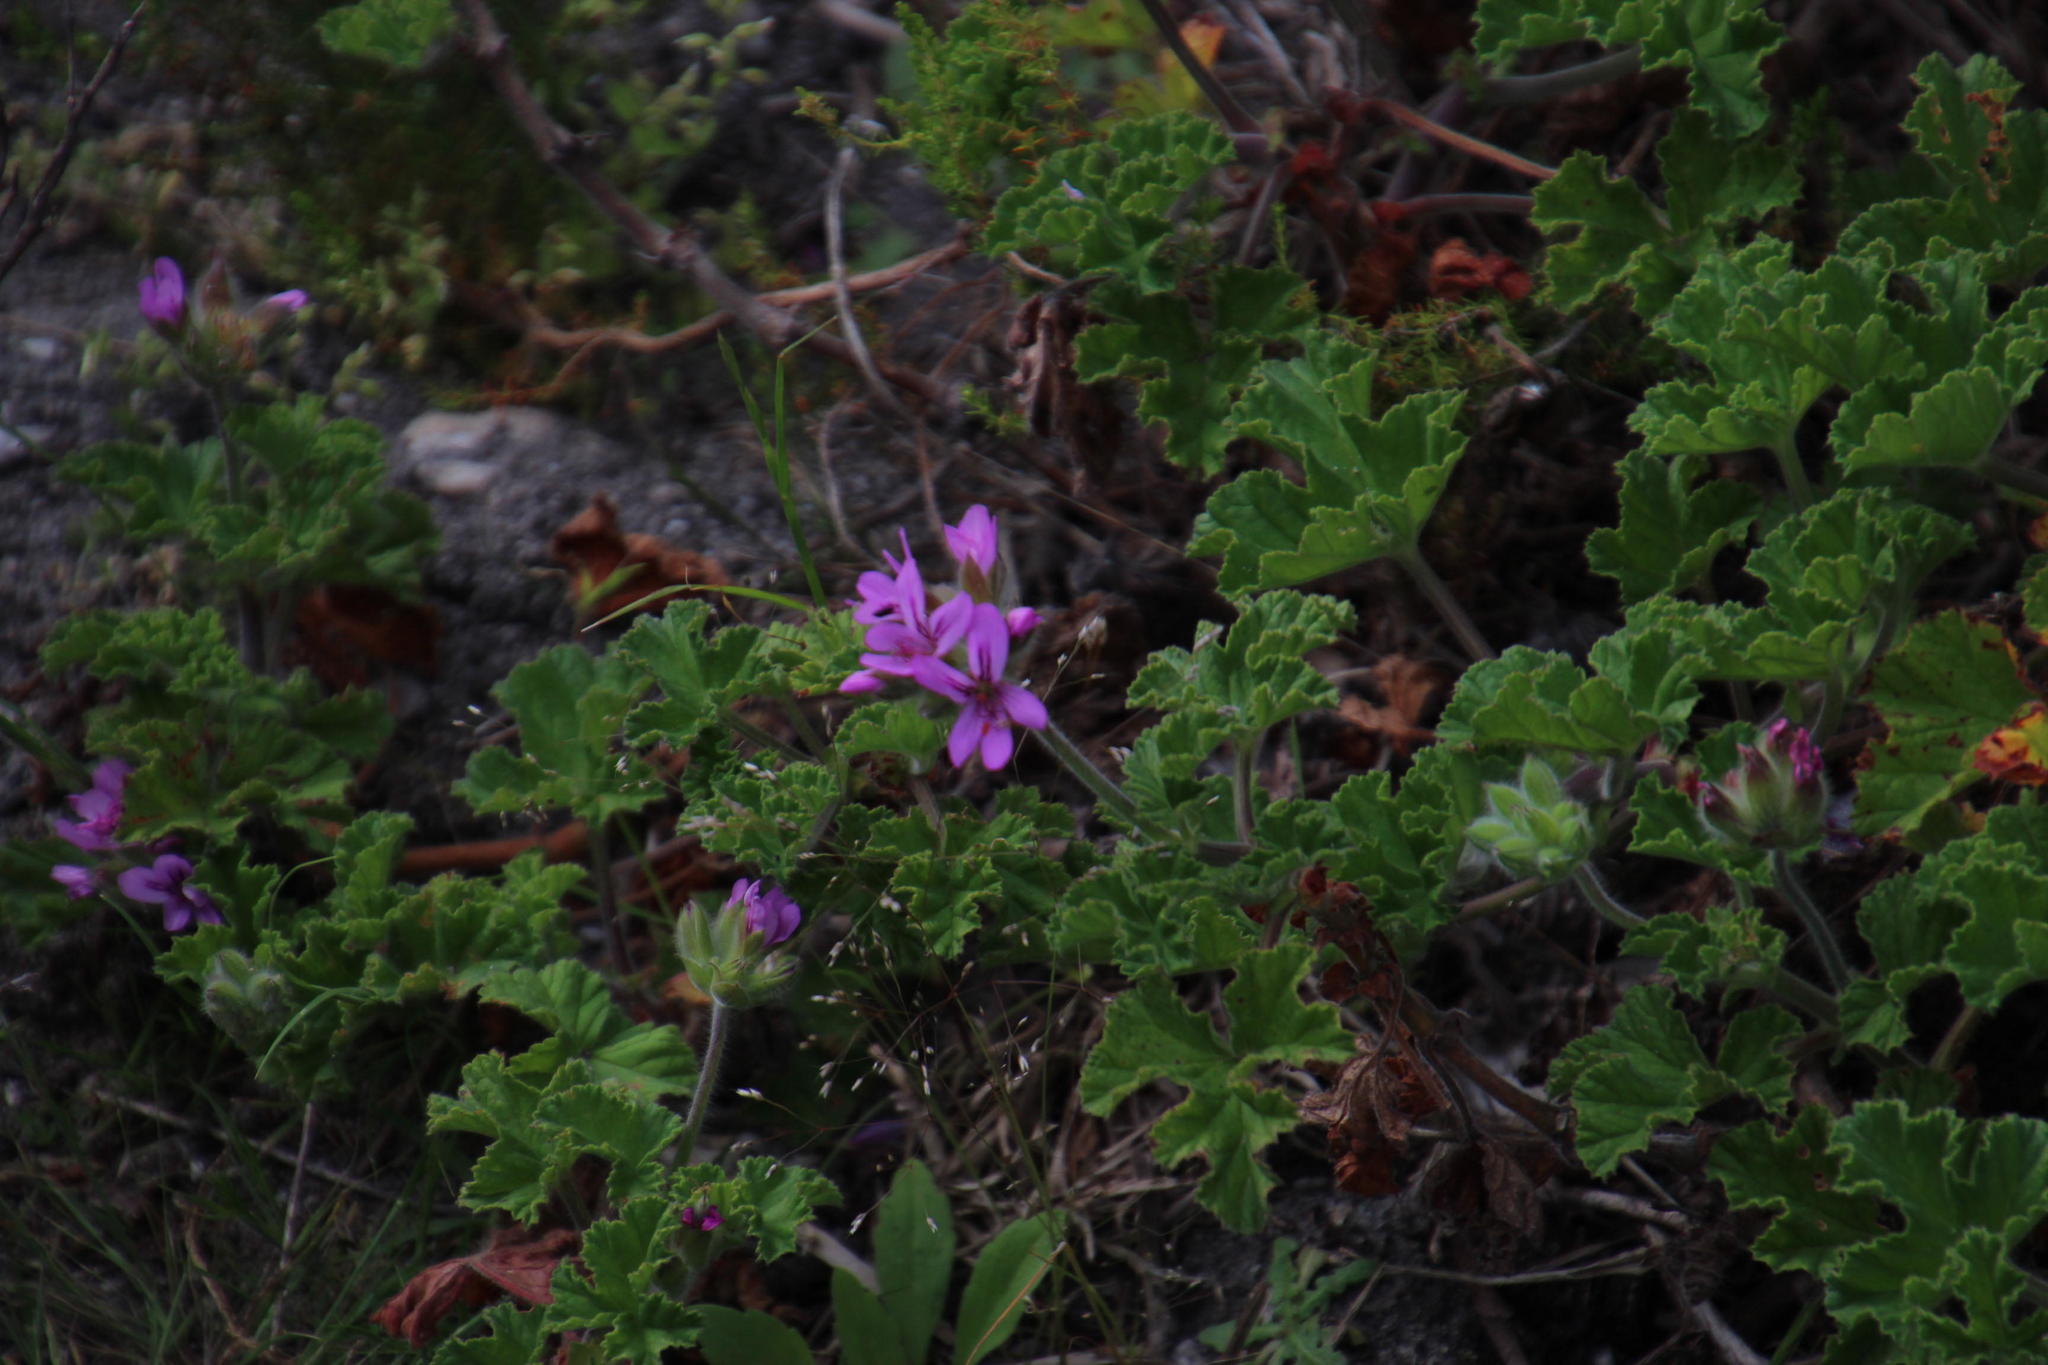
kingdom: Plantae
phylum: Tracheophyta
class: Magnoliopsida
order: Geraniales
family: Geraniaceae
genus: Pelargonium
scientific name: Pelargonium capitatum
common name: Rose scented geranium
